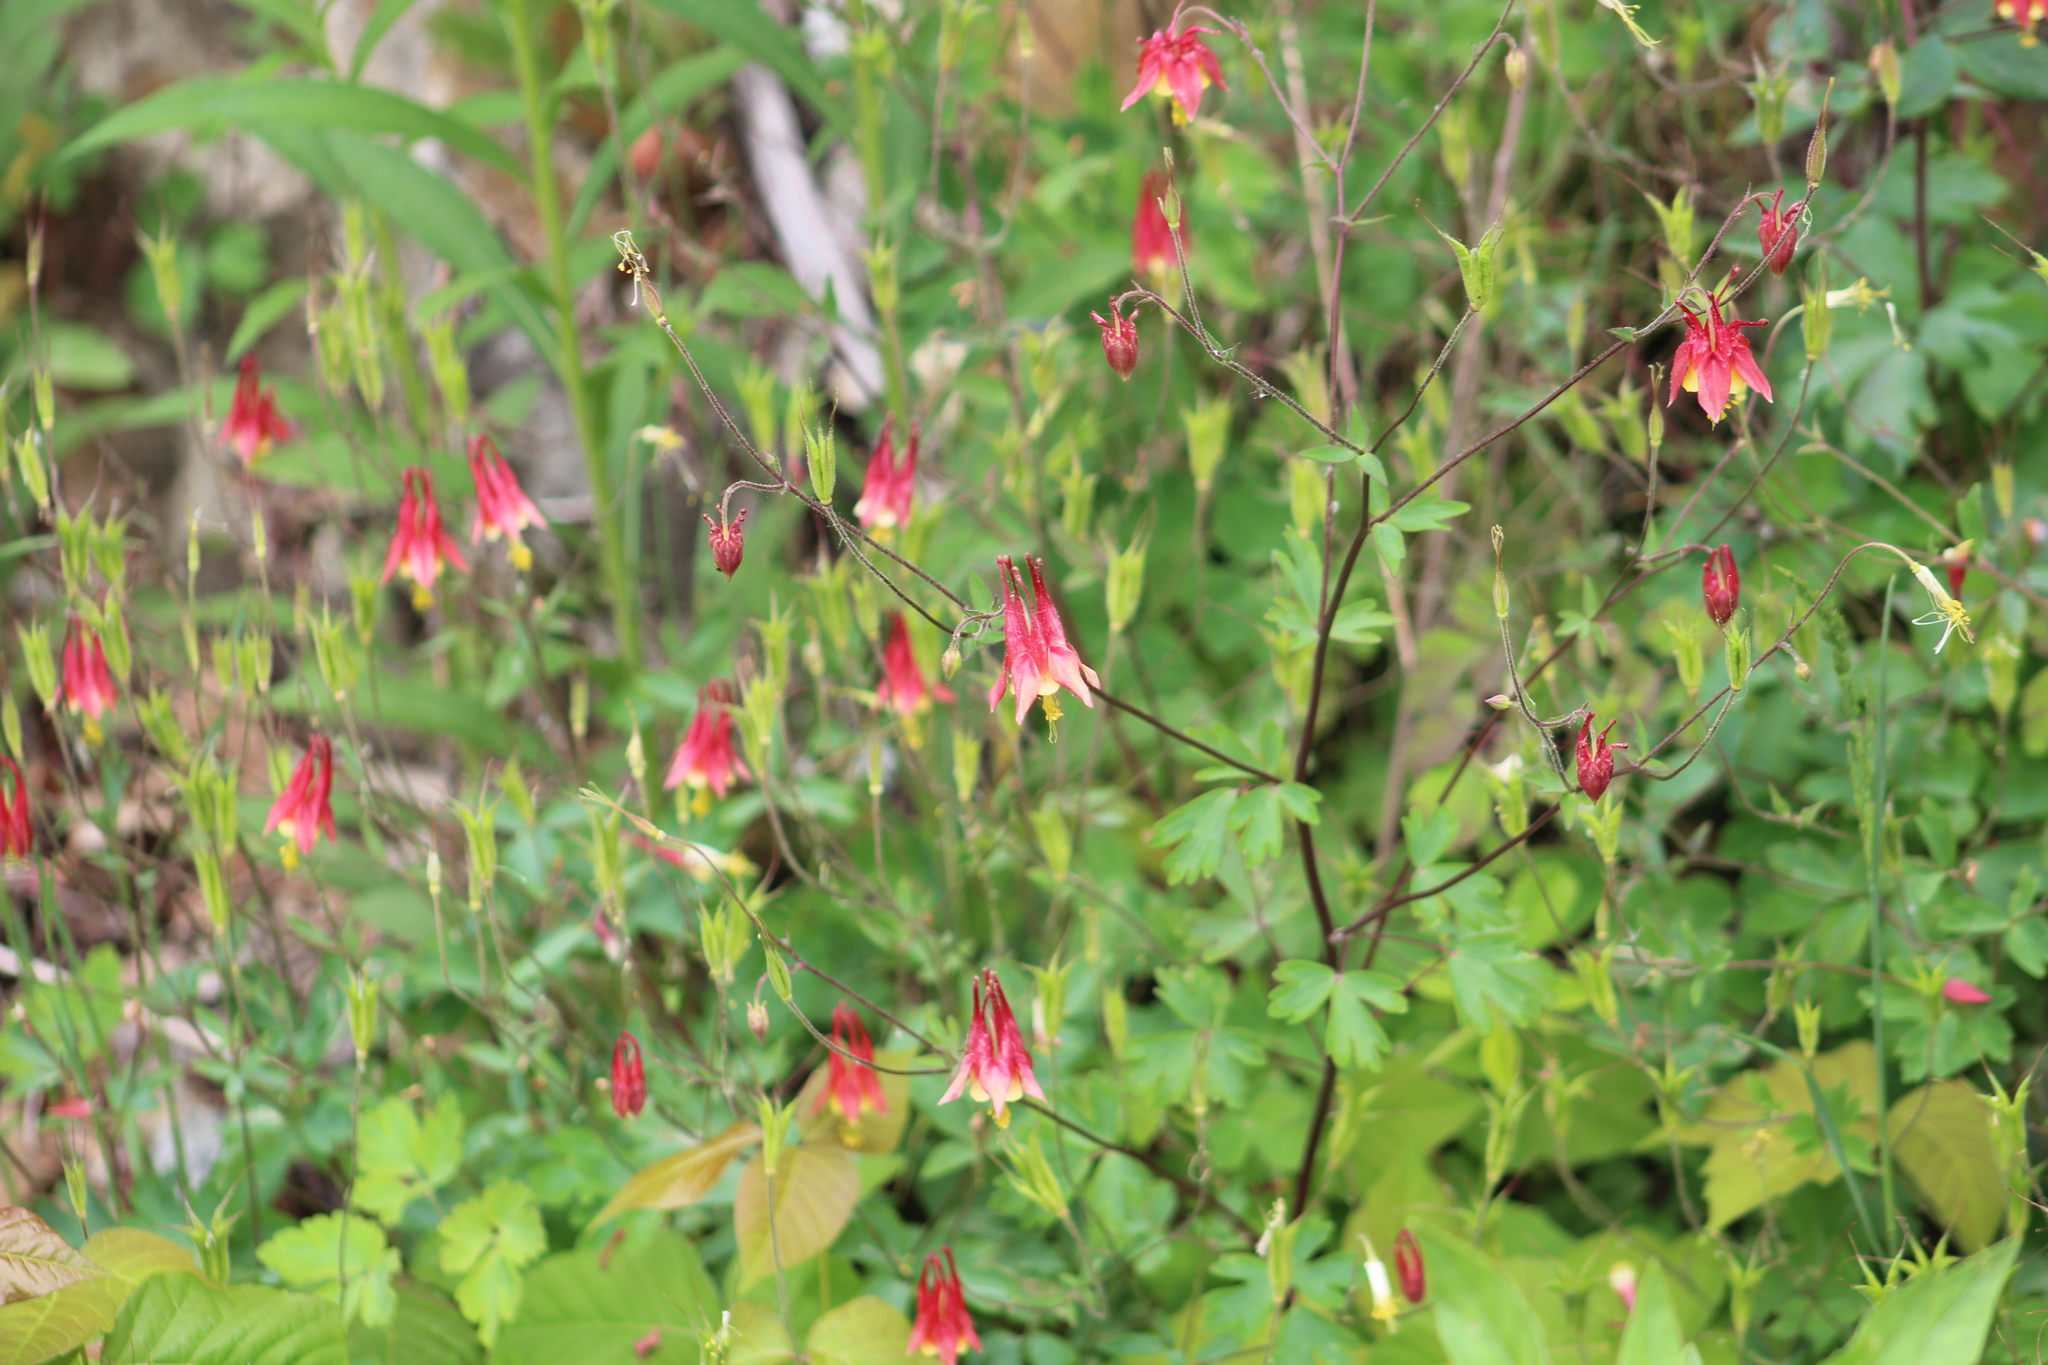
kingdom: Plantae
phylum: Tracheophyta
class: Magnoliopsida
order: Ranunculales
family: Ranunculaceae
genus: Aquilegia
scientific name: Aquilegia canadensis
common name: American columbine
